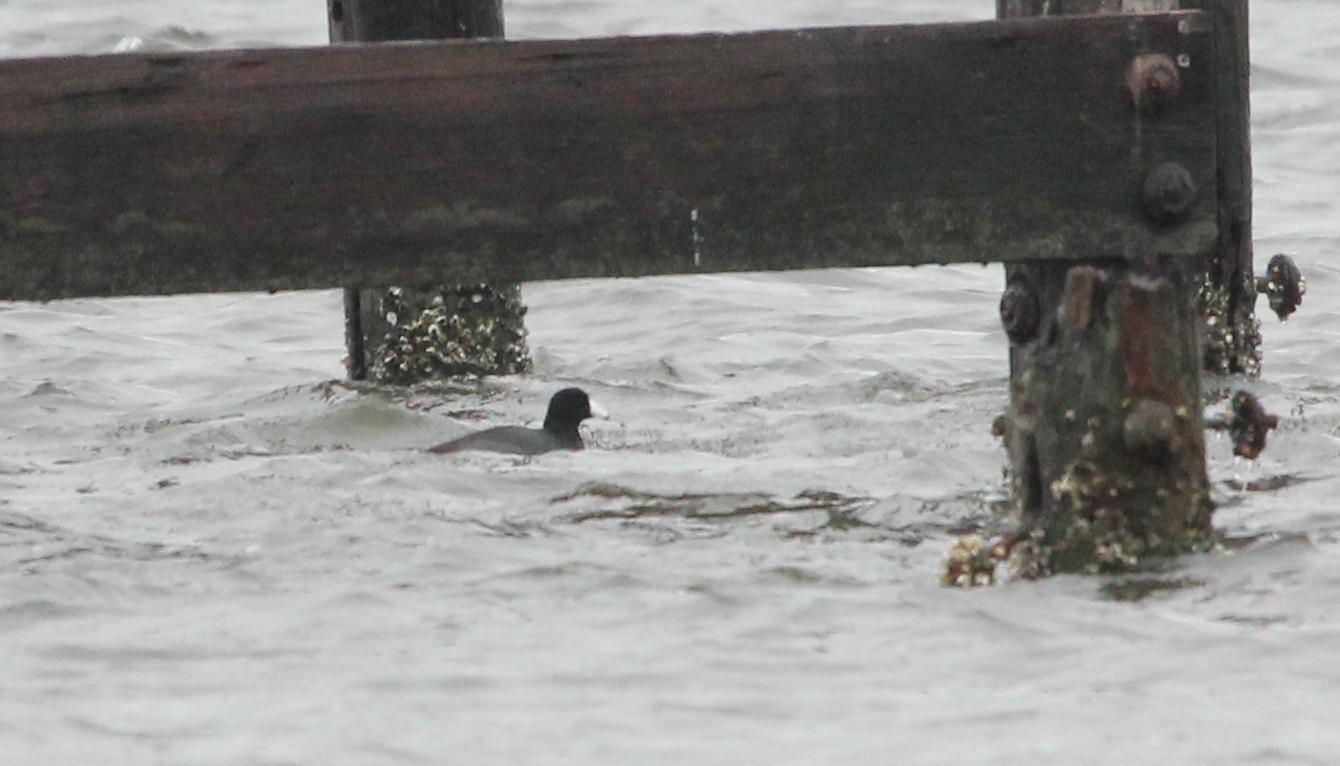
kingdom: Animalia
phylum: Chordata
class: Aves
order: Gruiformes
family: Rallidae
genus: Fulica
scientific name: Fulica americana
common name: American coot
